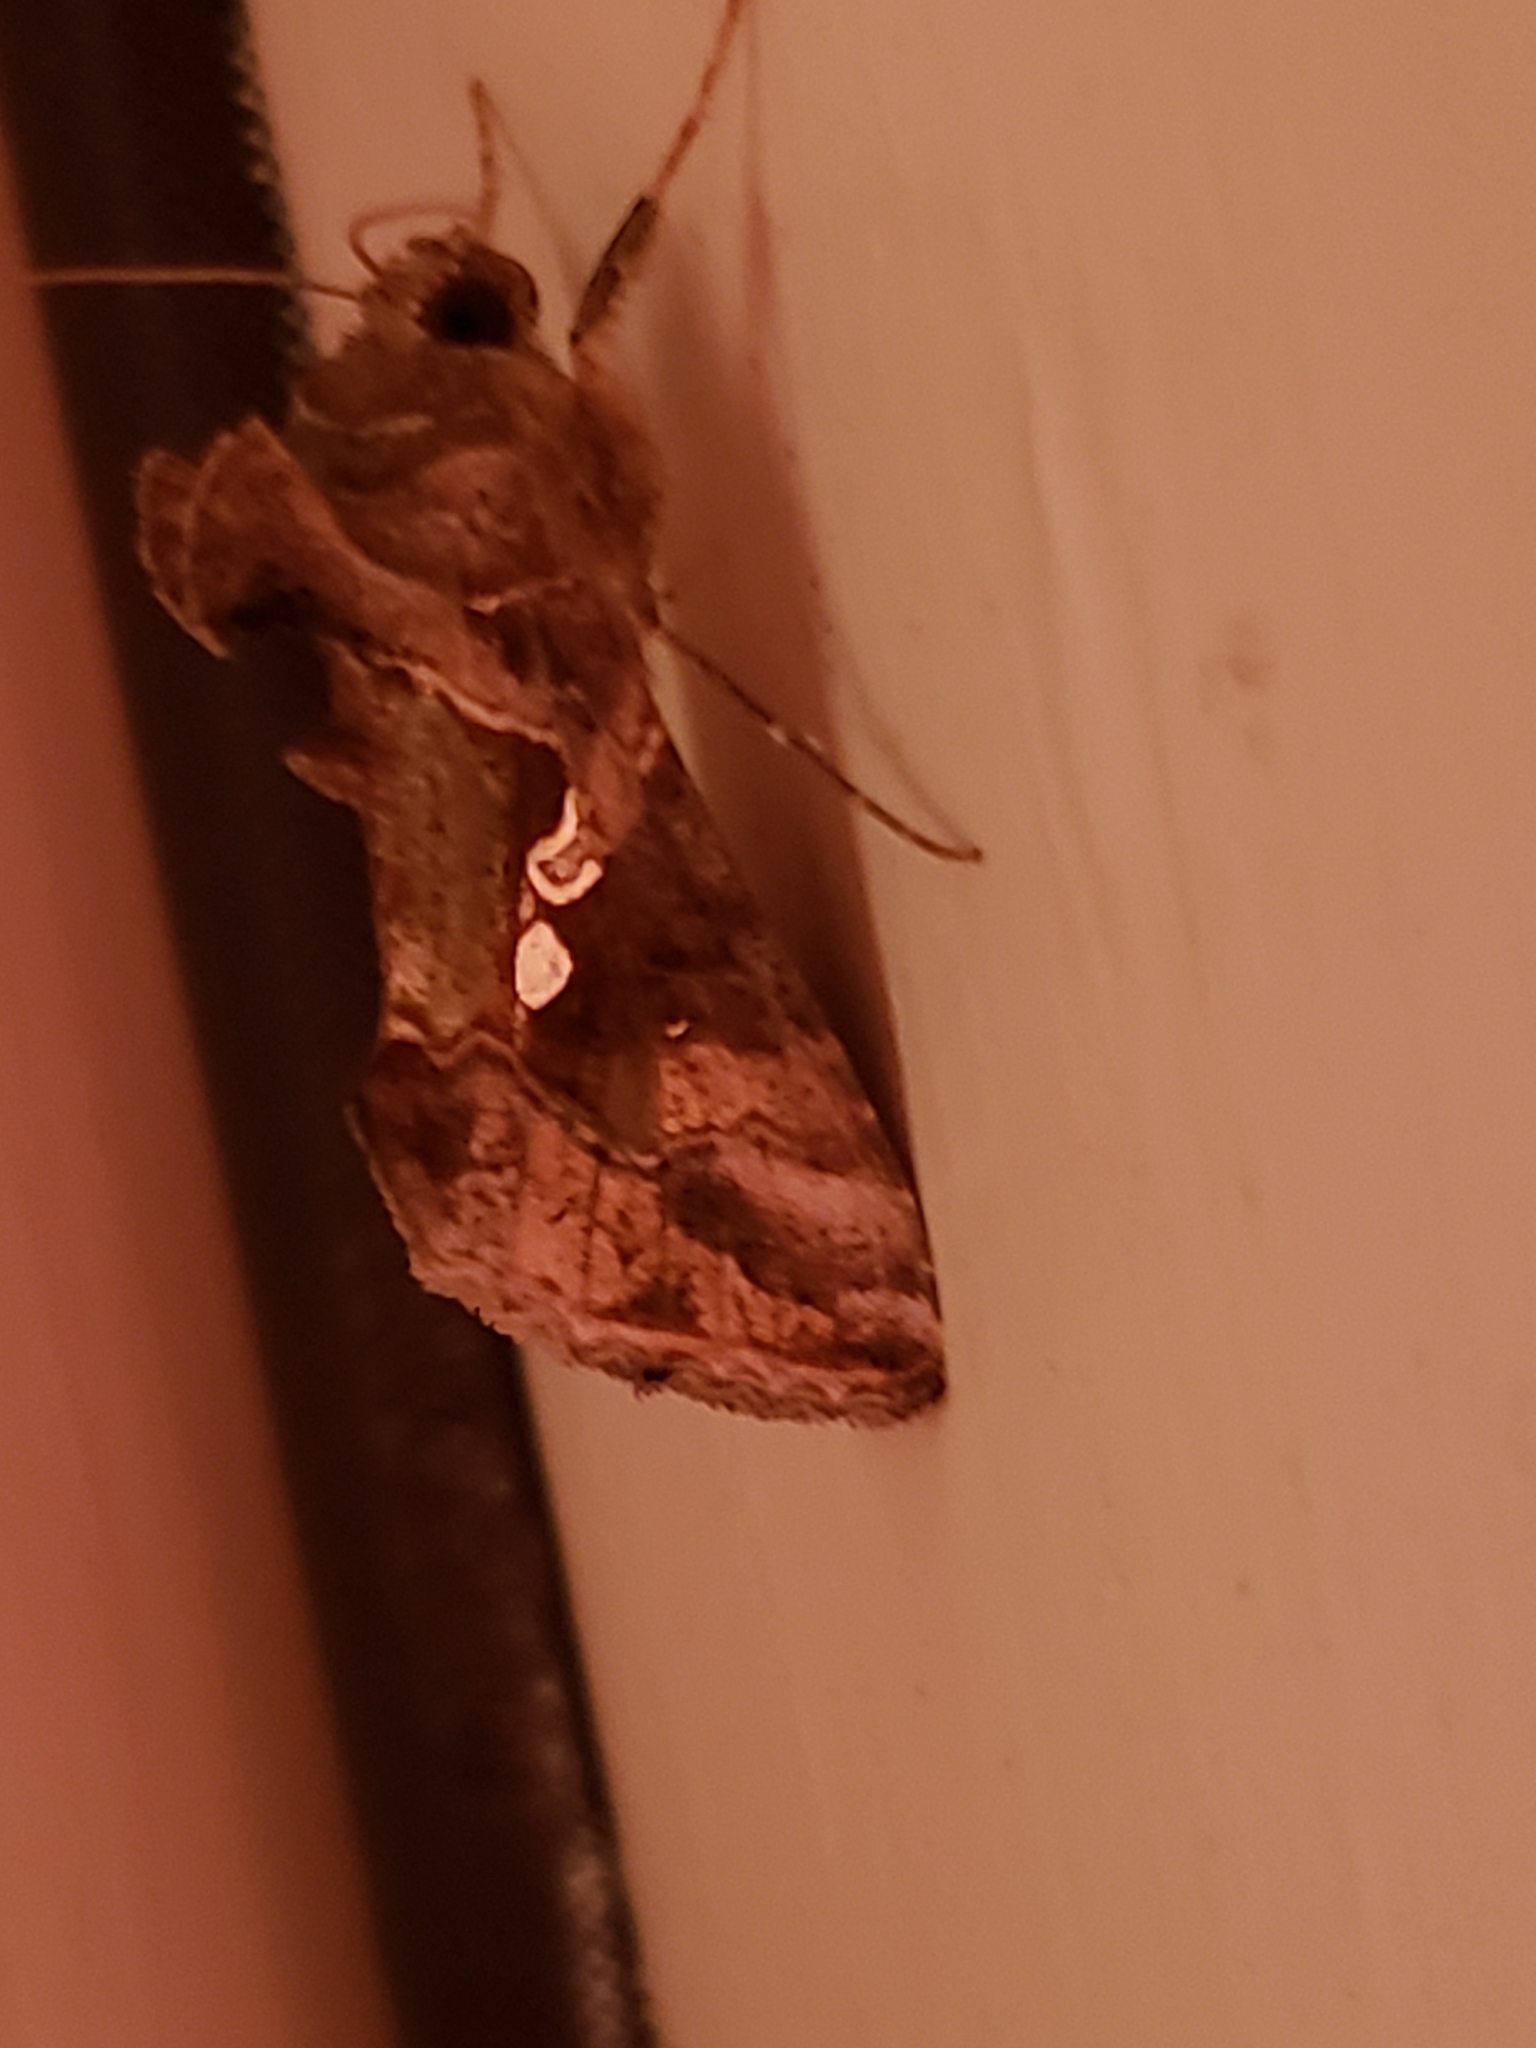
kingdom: Animalia
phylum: Arthropoda
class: Insecta
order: Lepidoptera
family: Noctuidae
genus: Chrysodeixis
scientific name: Chrysodeixis includens
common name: Cutworm moth
